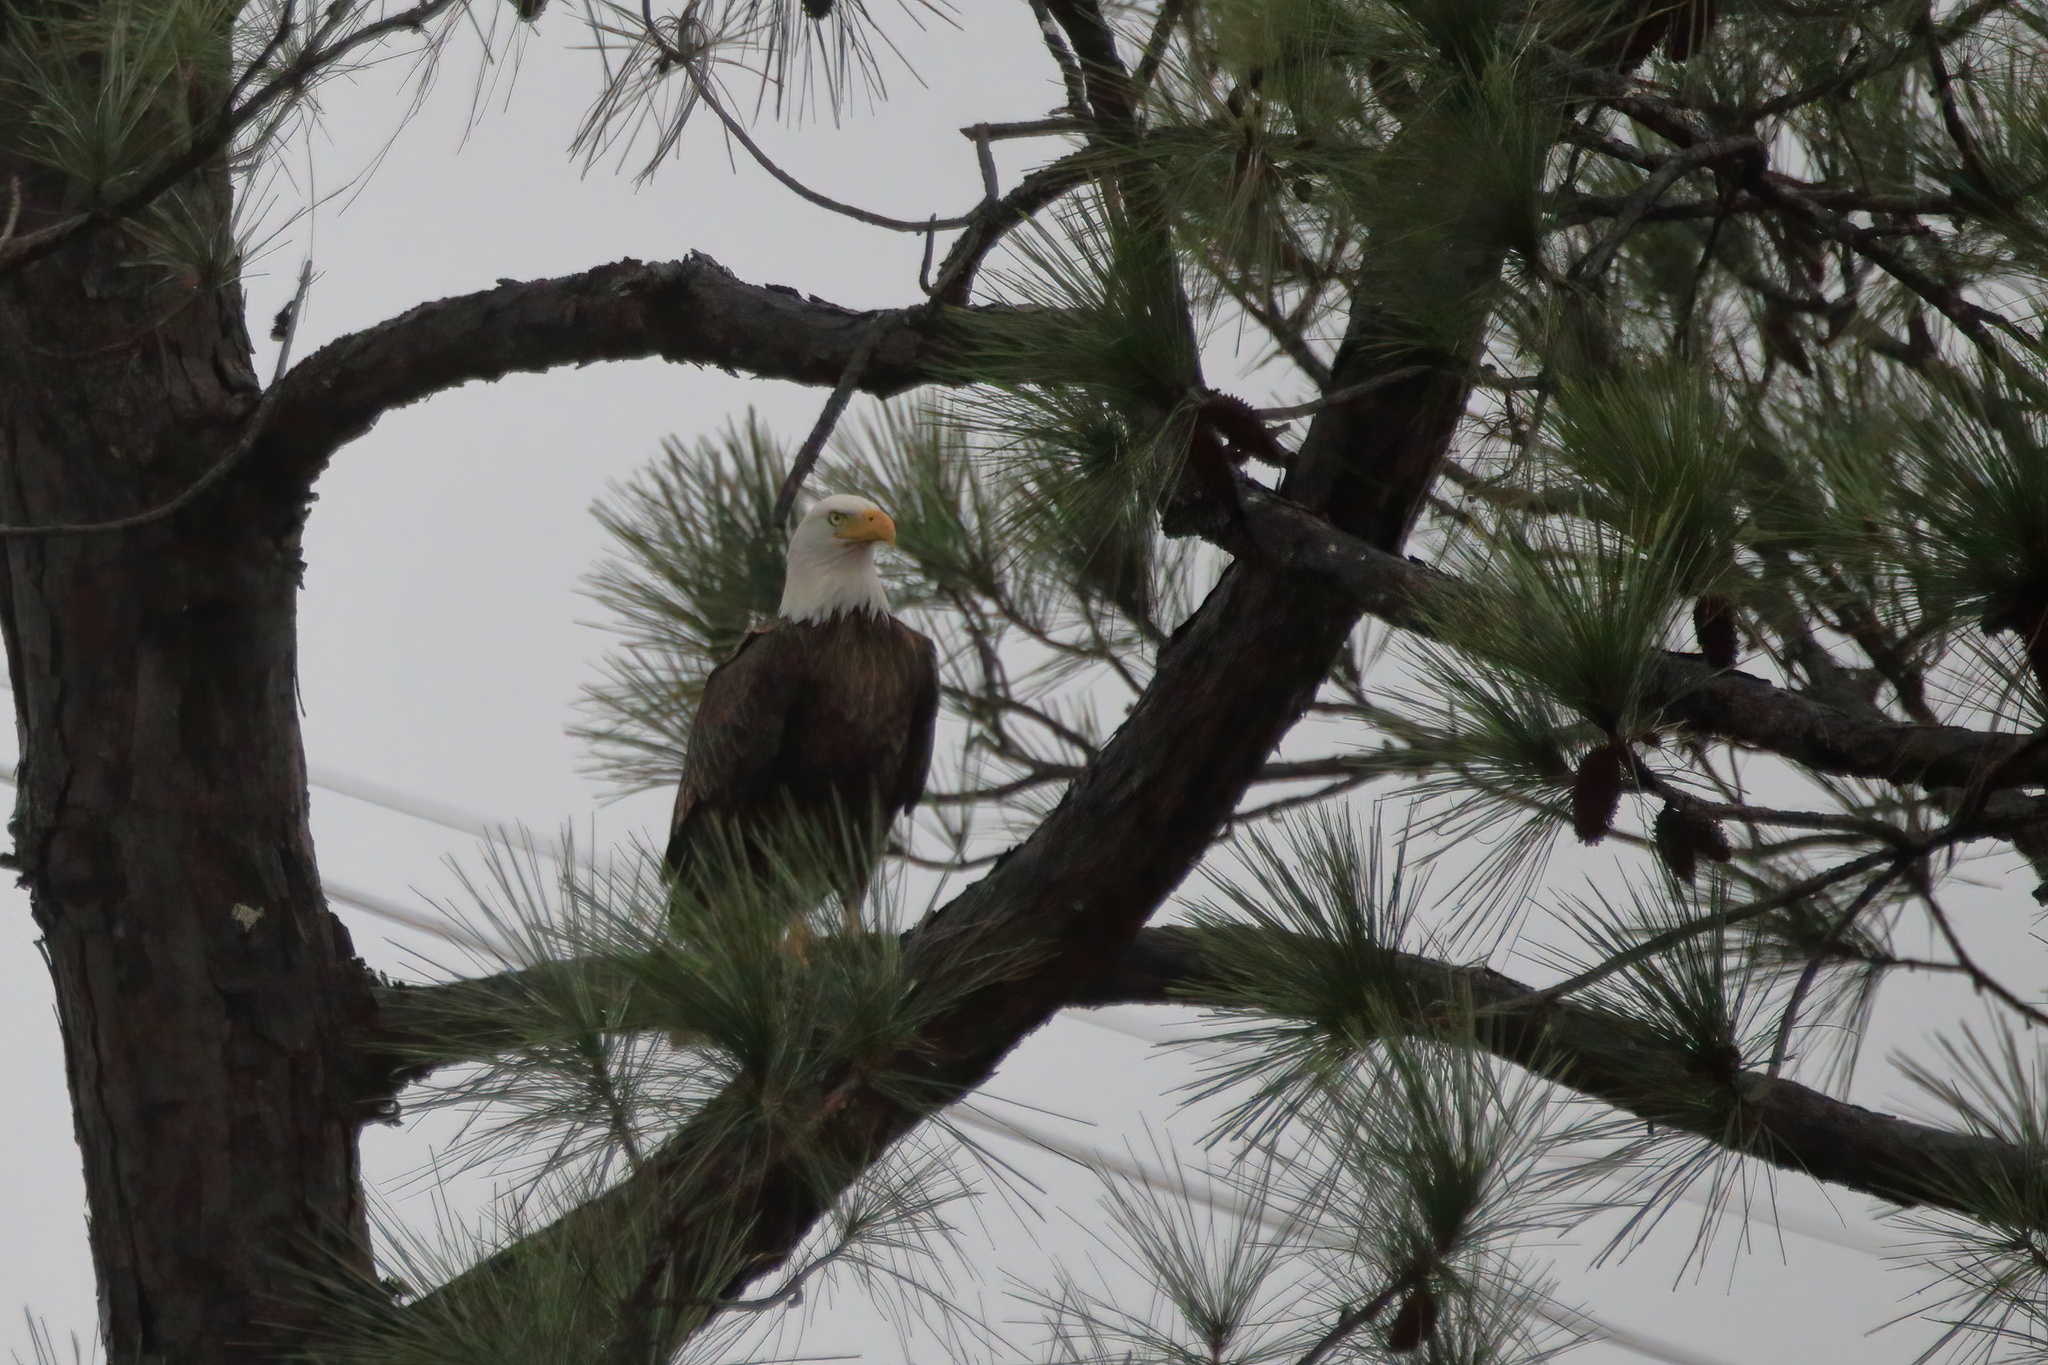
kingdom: Animalia
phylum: Chordata
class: Aves
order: Accipitriformes
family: Accipitridae
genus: Haliaeetus
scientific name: Haliaeetus leucocephalus
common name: Bald eagle
